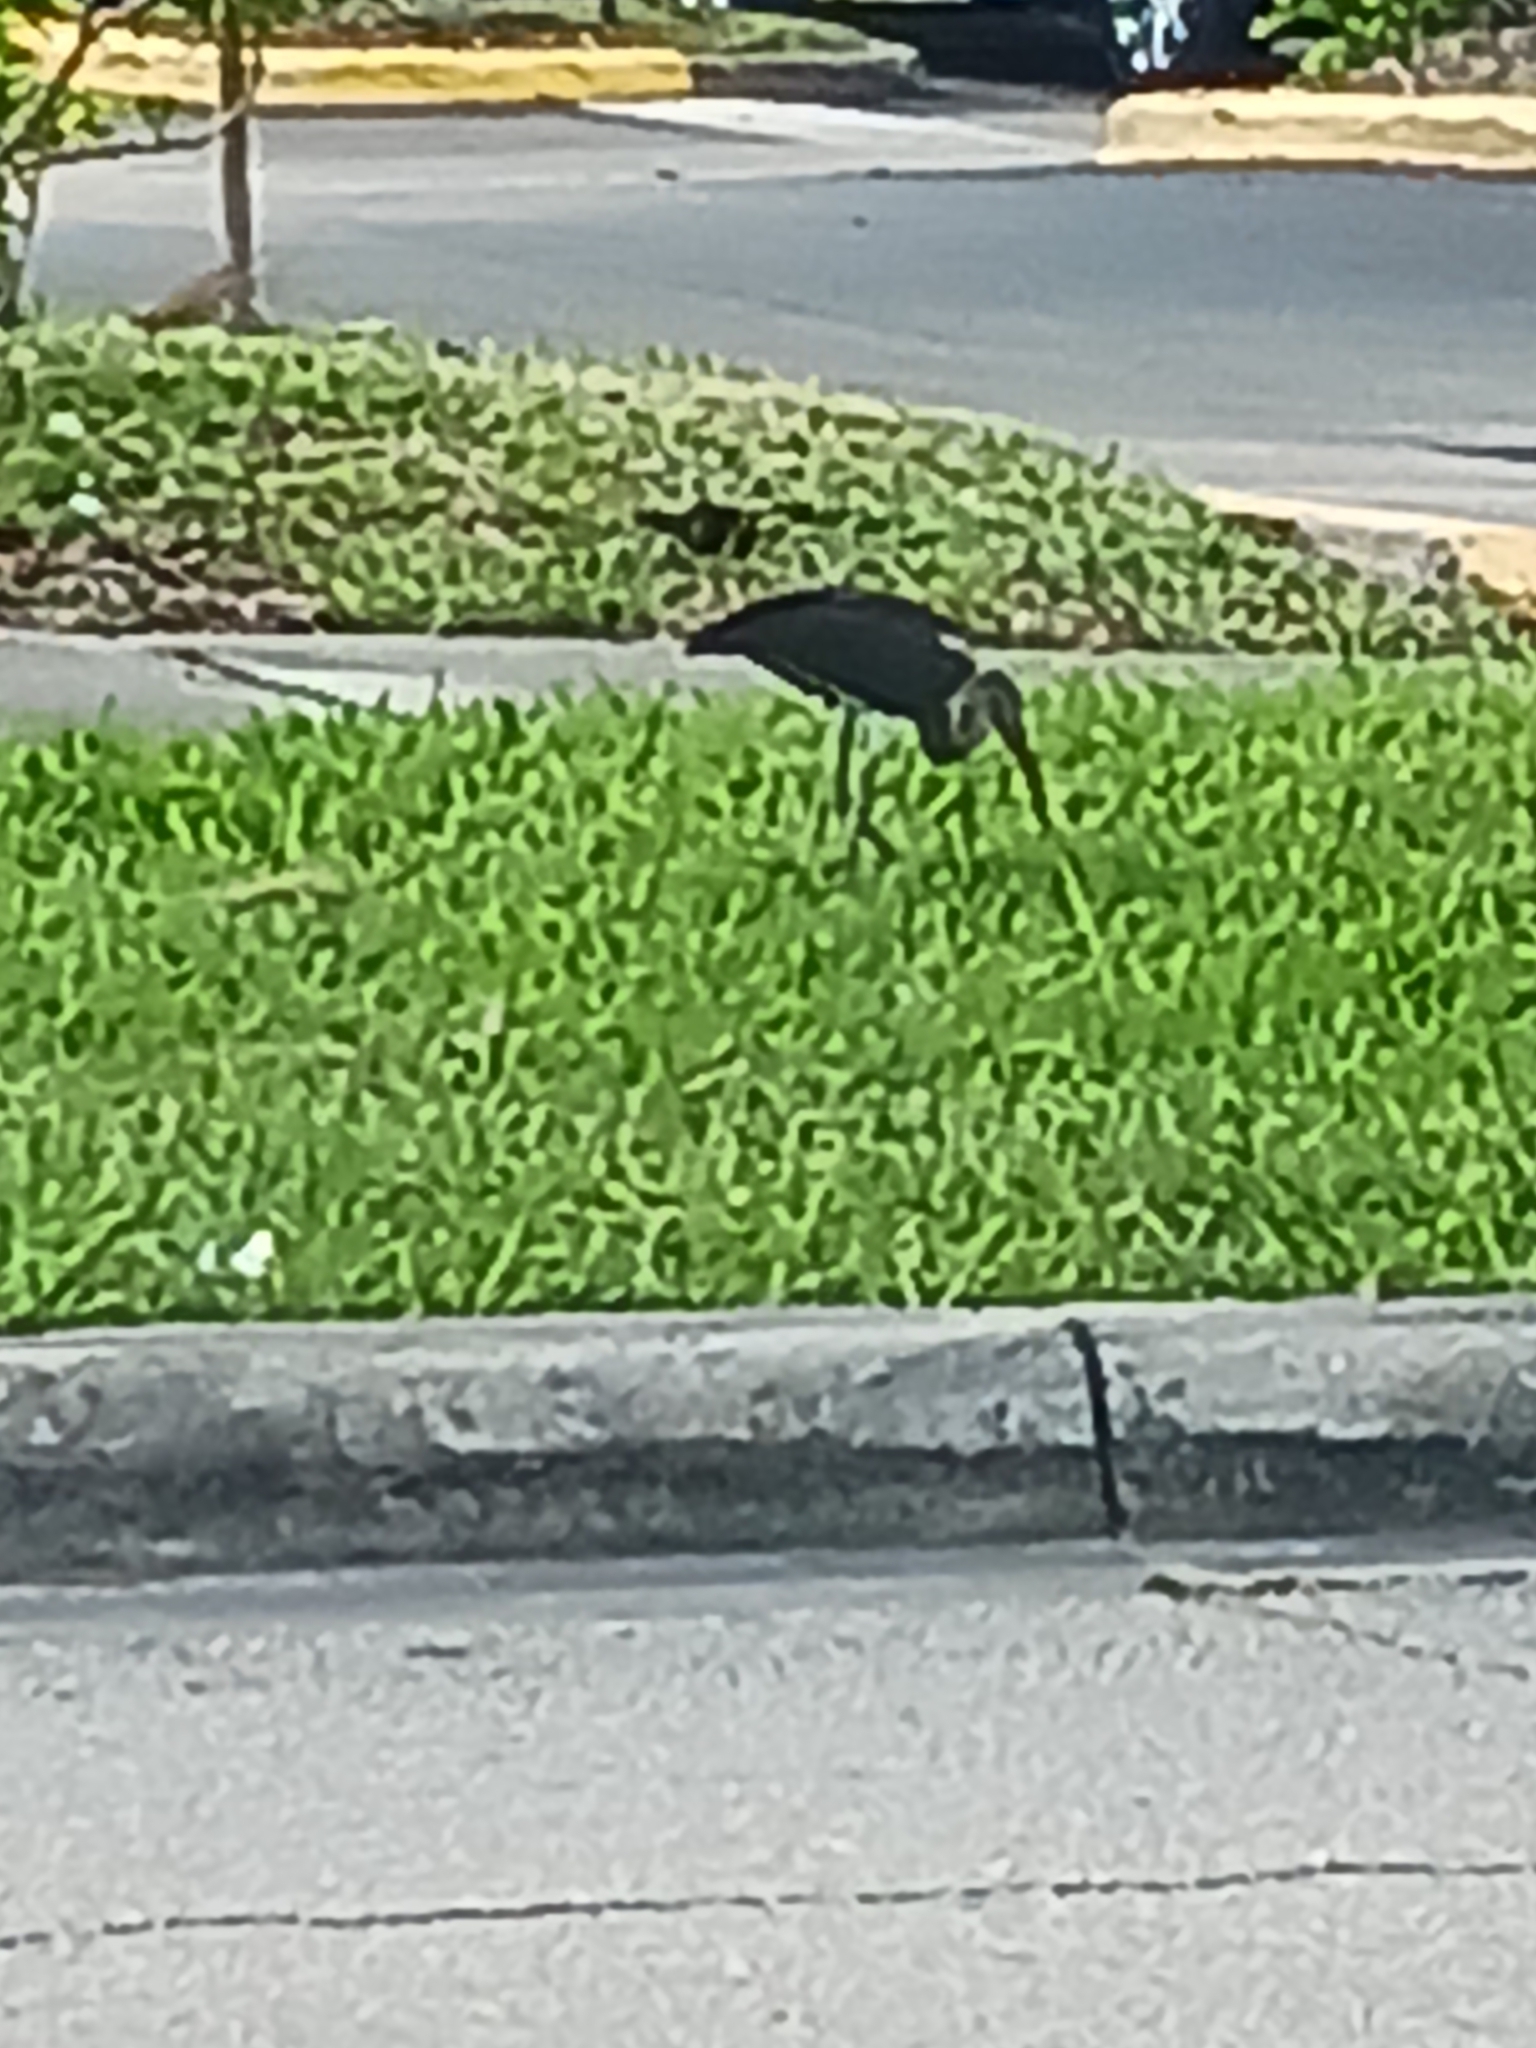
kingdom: Animalia
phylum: Chordata
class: Aves
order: Pelecaniformes
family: Threskiornithidae
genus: Eudocimus
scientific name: Eudocimus albus
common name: White ibis
